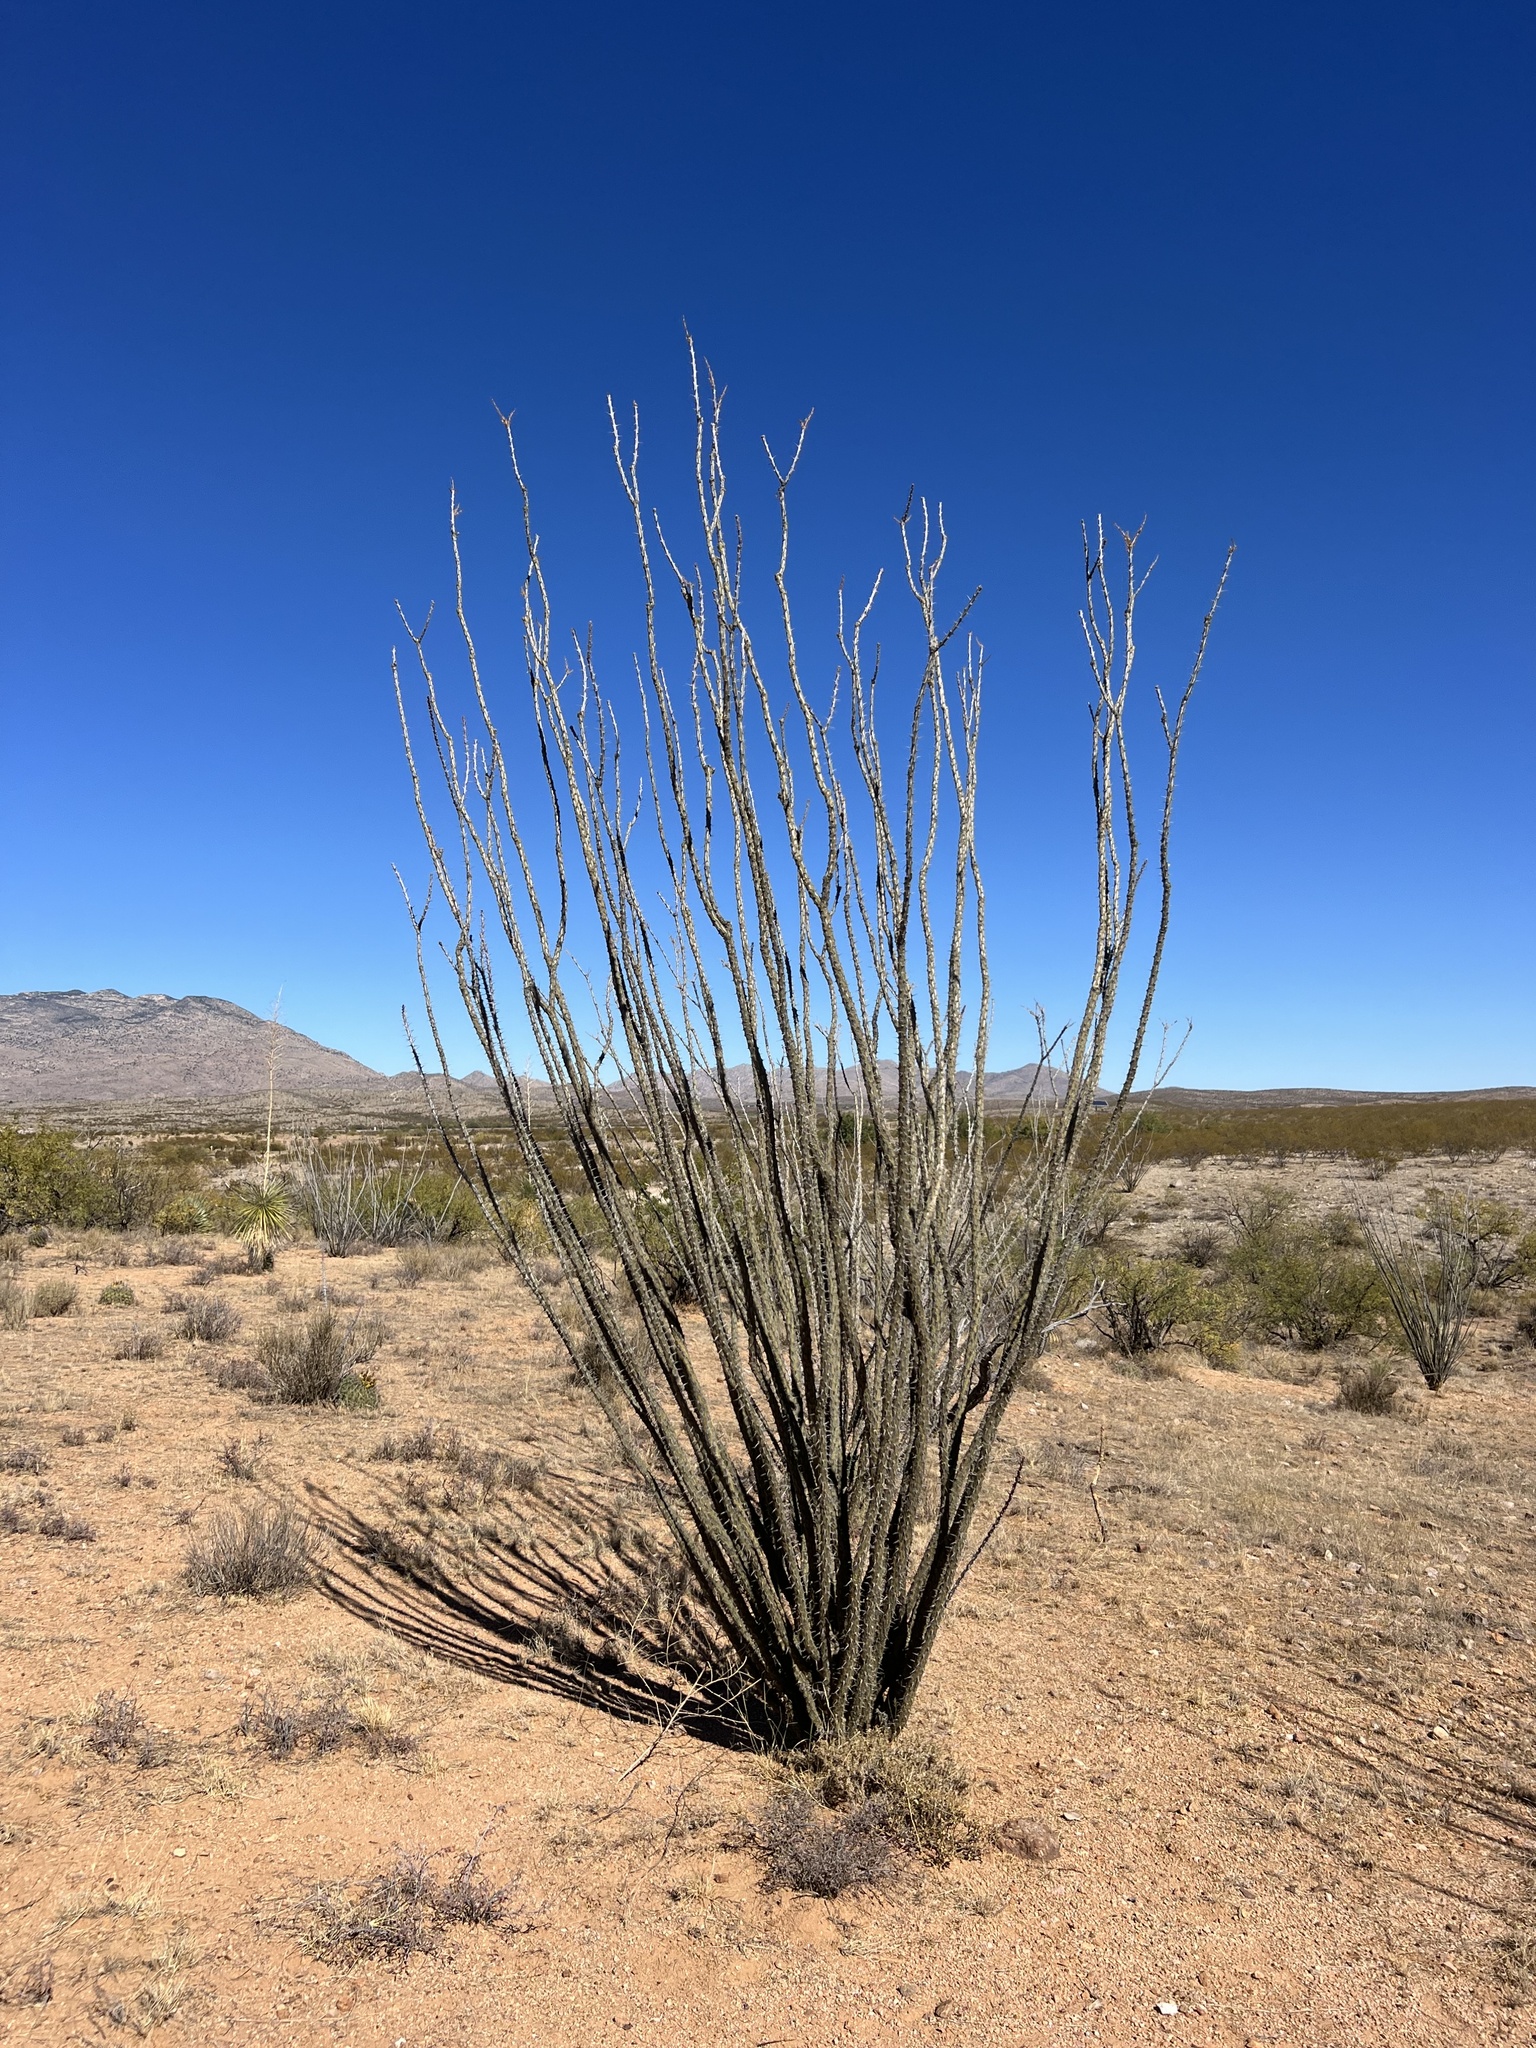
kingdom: Plantae
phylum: Tracheophyta
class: Magnoliopsida
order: Ericales
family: Fouquieriaceae
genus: Fouquieria
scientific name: Fouquieria splendens
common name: Vine-cactus
